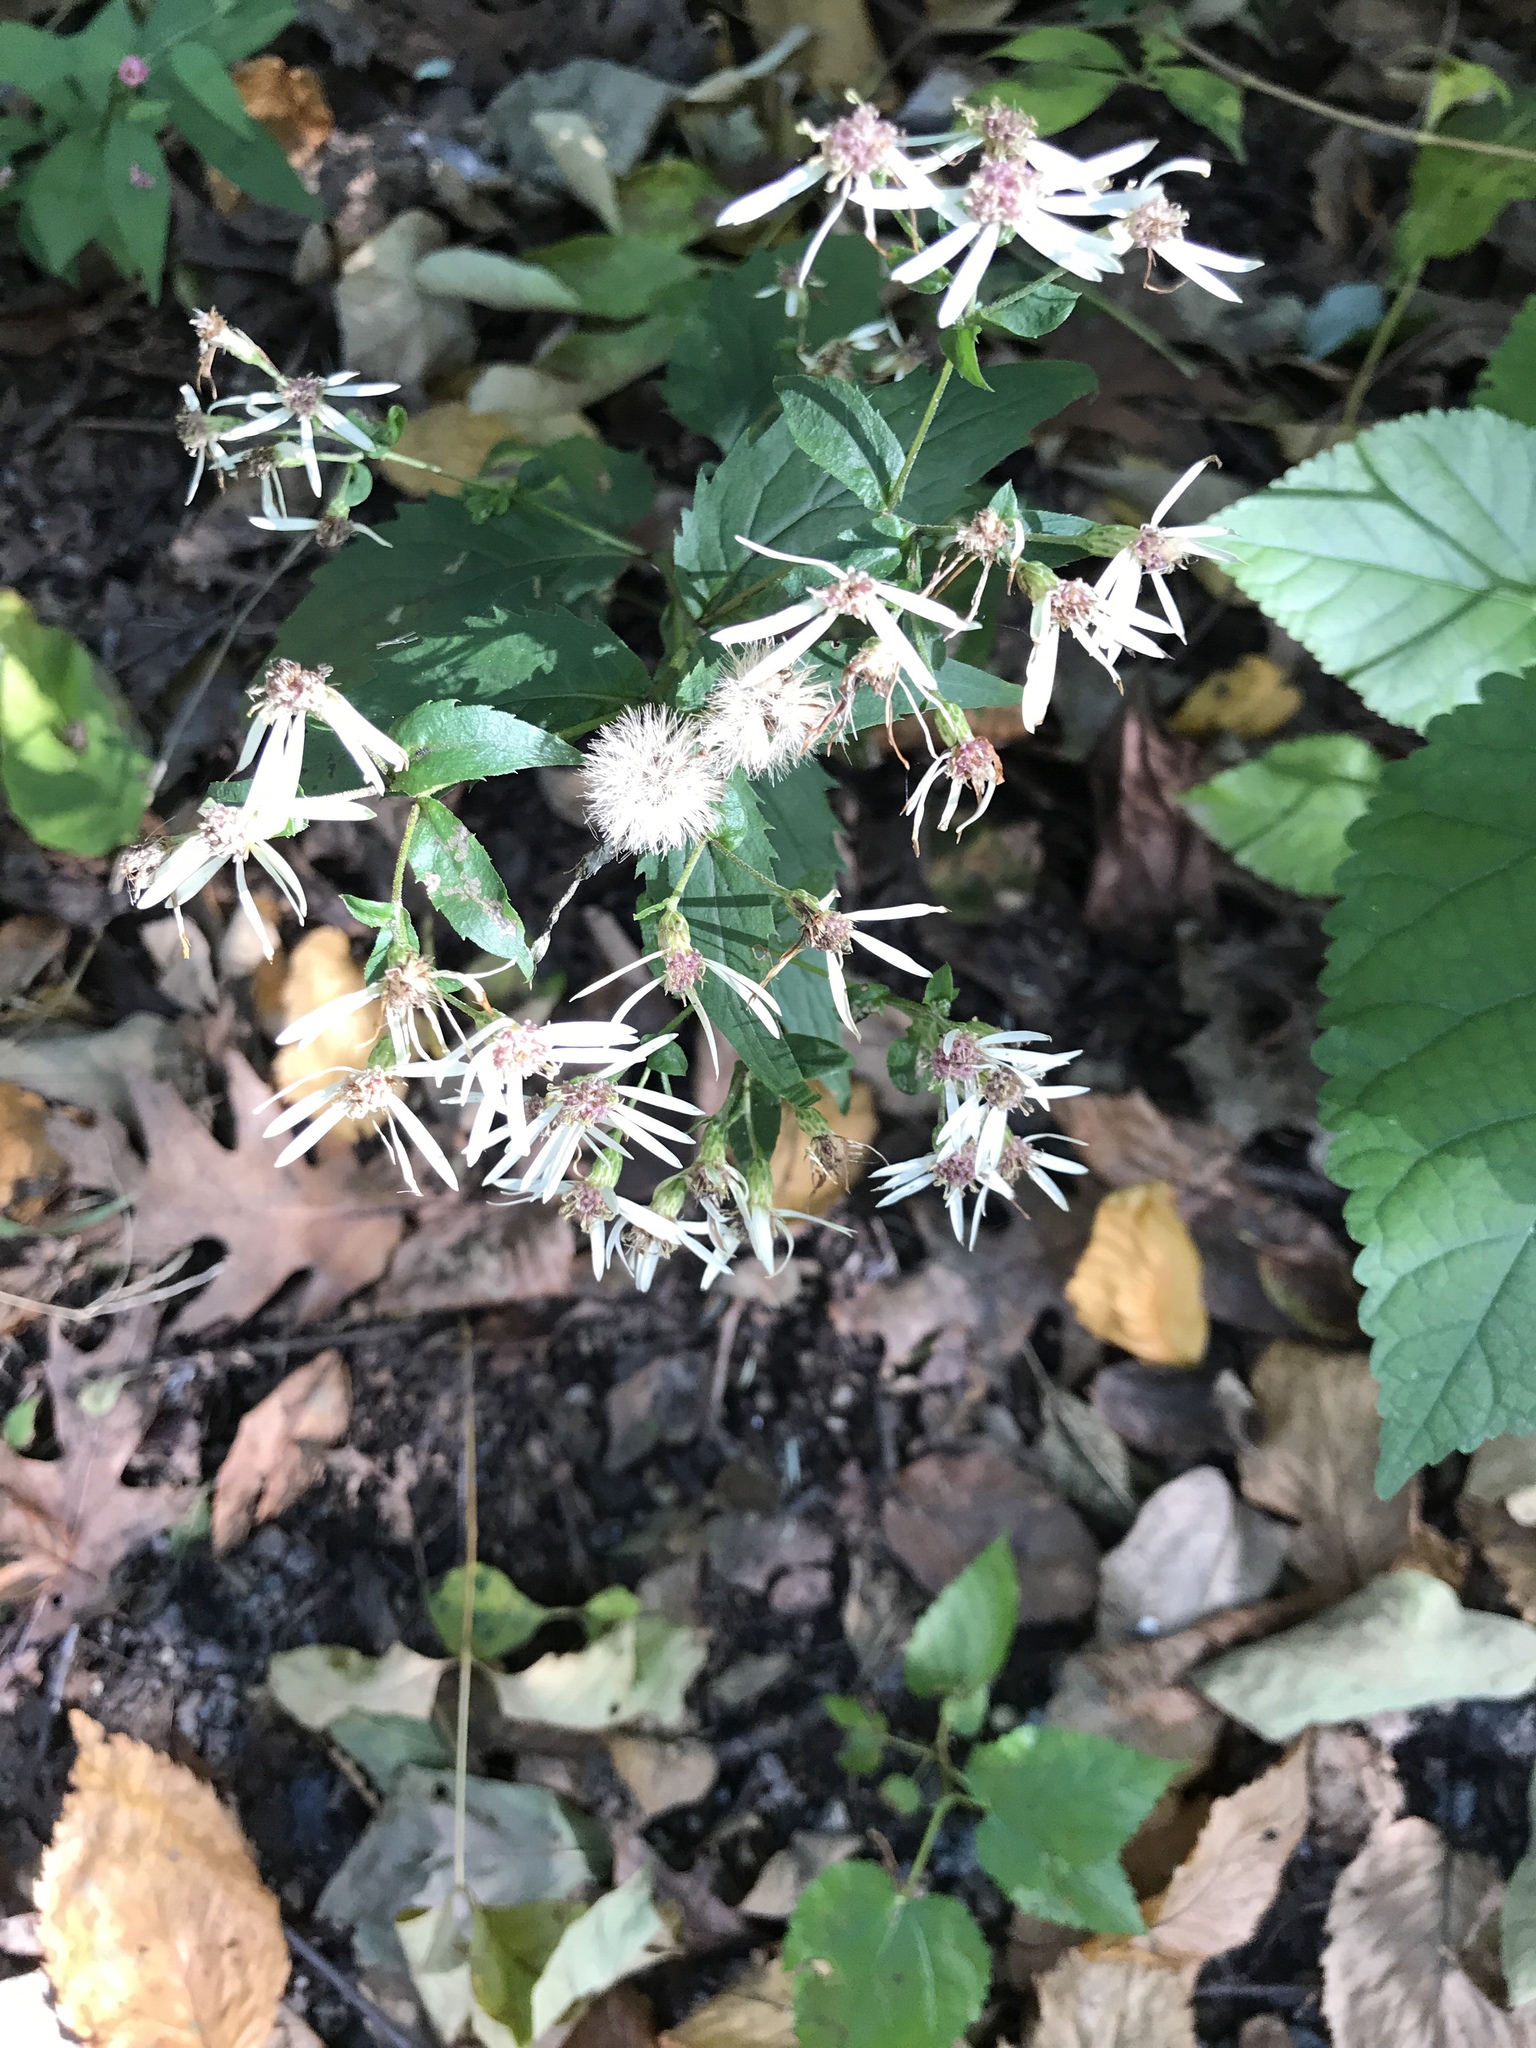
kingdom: Plantae
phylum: Tracheophyta
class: Magnoliopsida
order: Asterales
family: Asteraceae
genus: Eurybia
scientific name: Eurybia divaricata
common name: White wood aster
